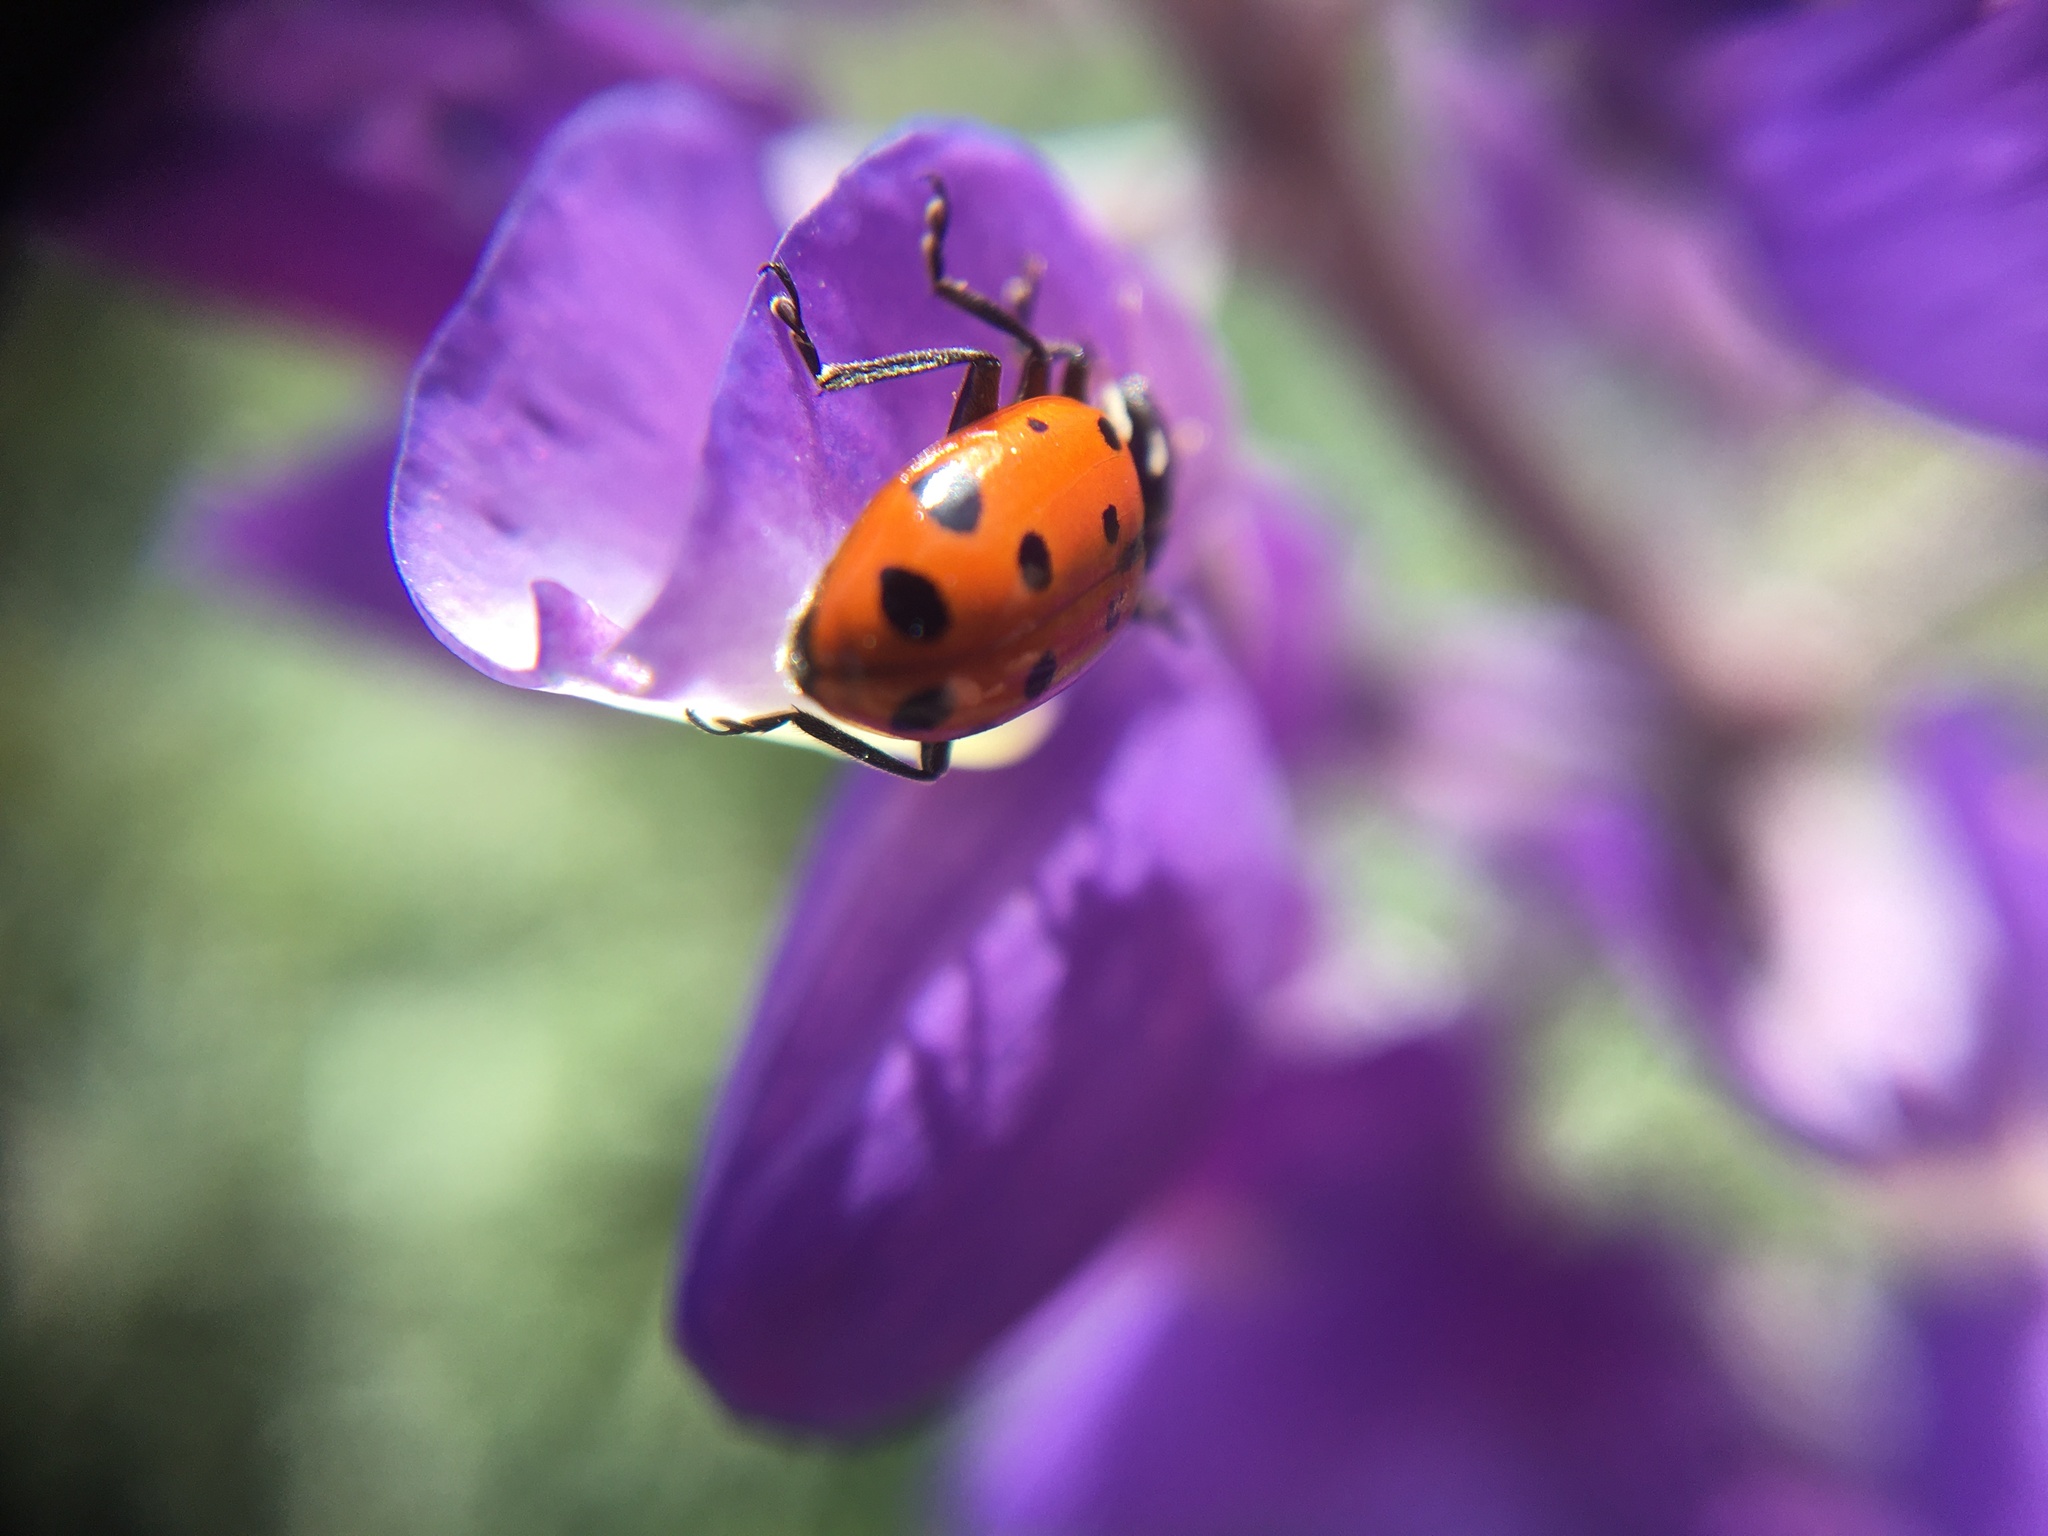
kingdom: Animalia
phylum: Arthropoda
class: Insecta
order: Coleoptera
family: Coccinellidae
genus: Hippodamia
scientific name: Hippodamia convergens
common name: Convergent lady beetle
